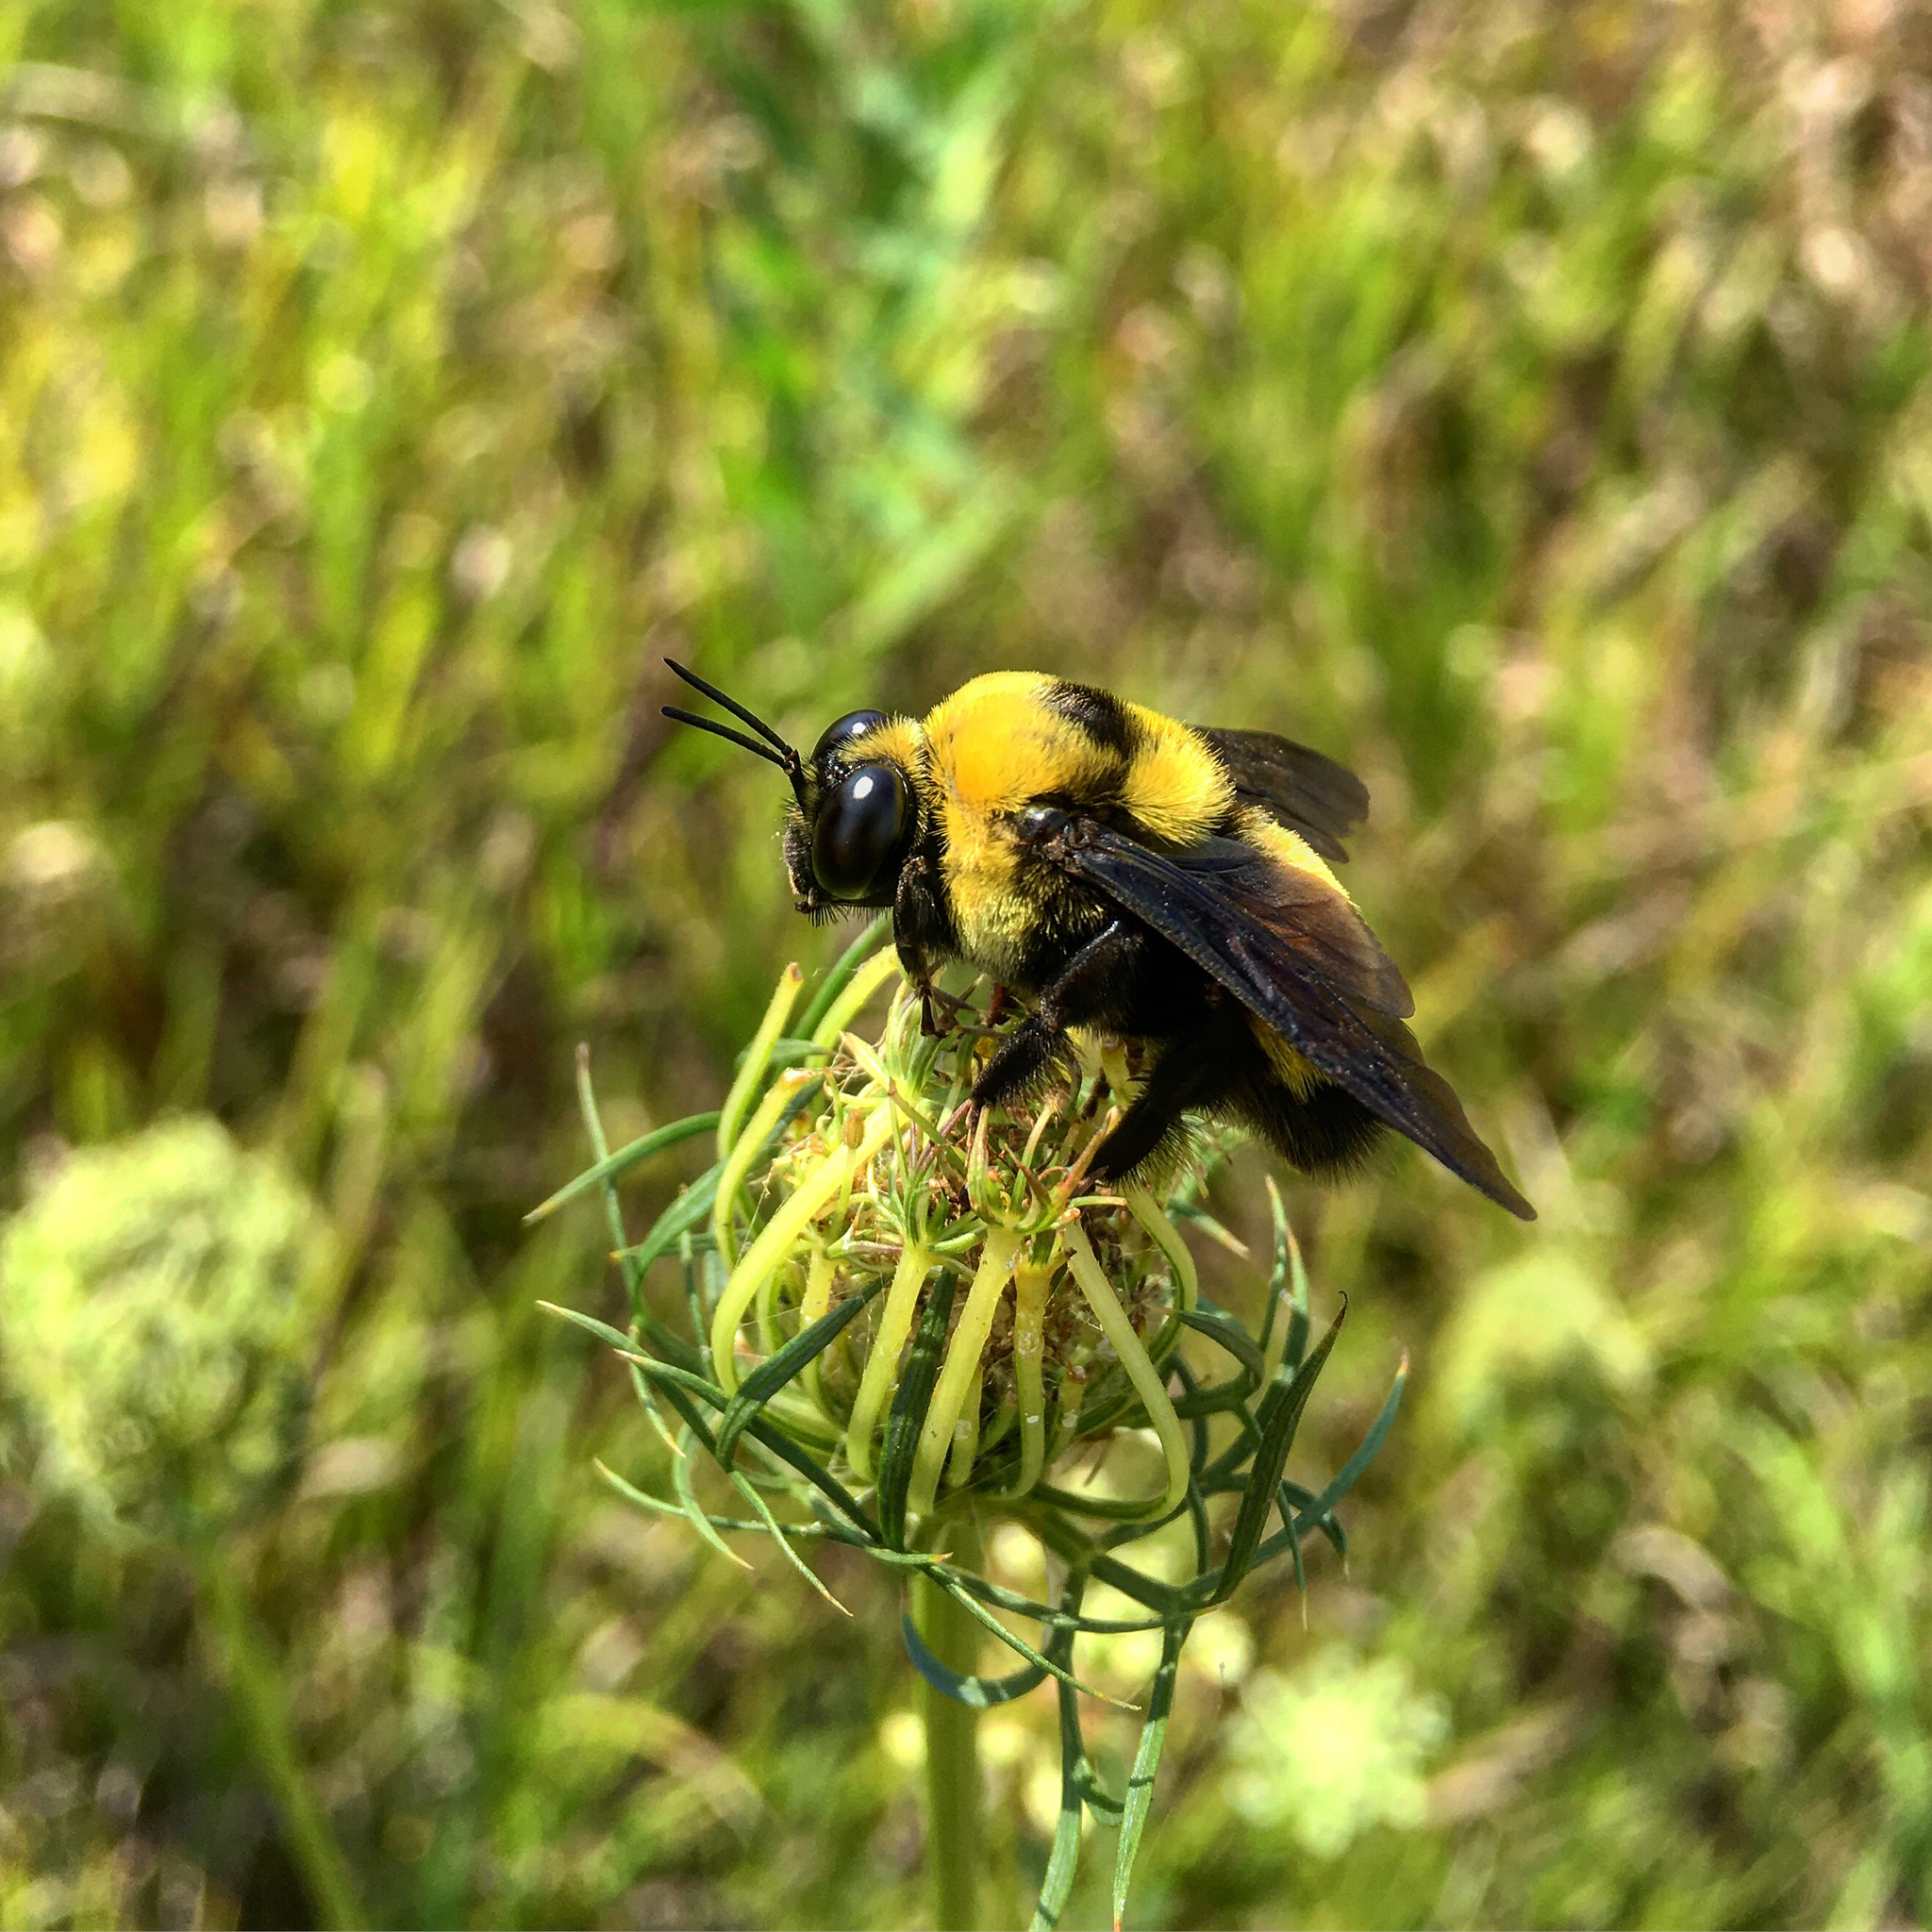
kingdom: Animalia
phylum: Arthropoda
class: Insecta
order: Hymenoptera
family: Apidae
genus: Bombus
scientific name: Bombus auricomus
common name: Black and gold bumble bee
